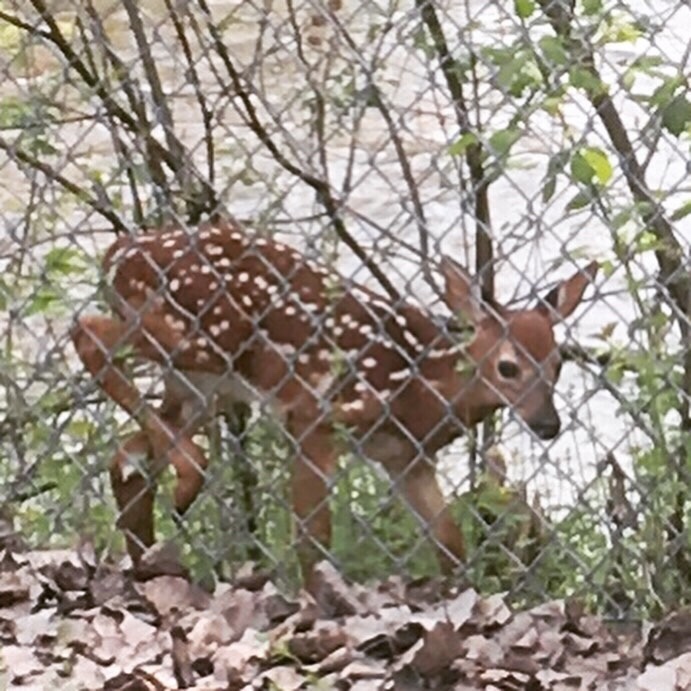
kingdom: Animalia
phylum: Chordata
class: Mammalia
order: Artiodactyla
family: Cervidae
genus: Odocoileus
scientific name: Odocoileus virginianus
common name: White-tailed deer
